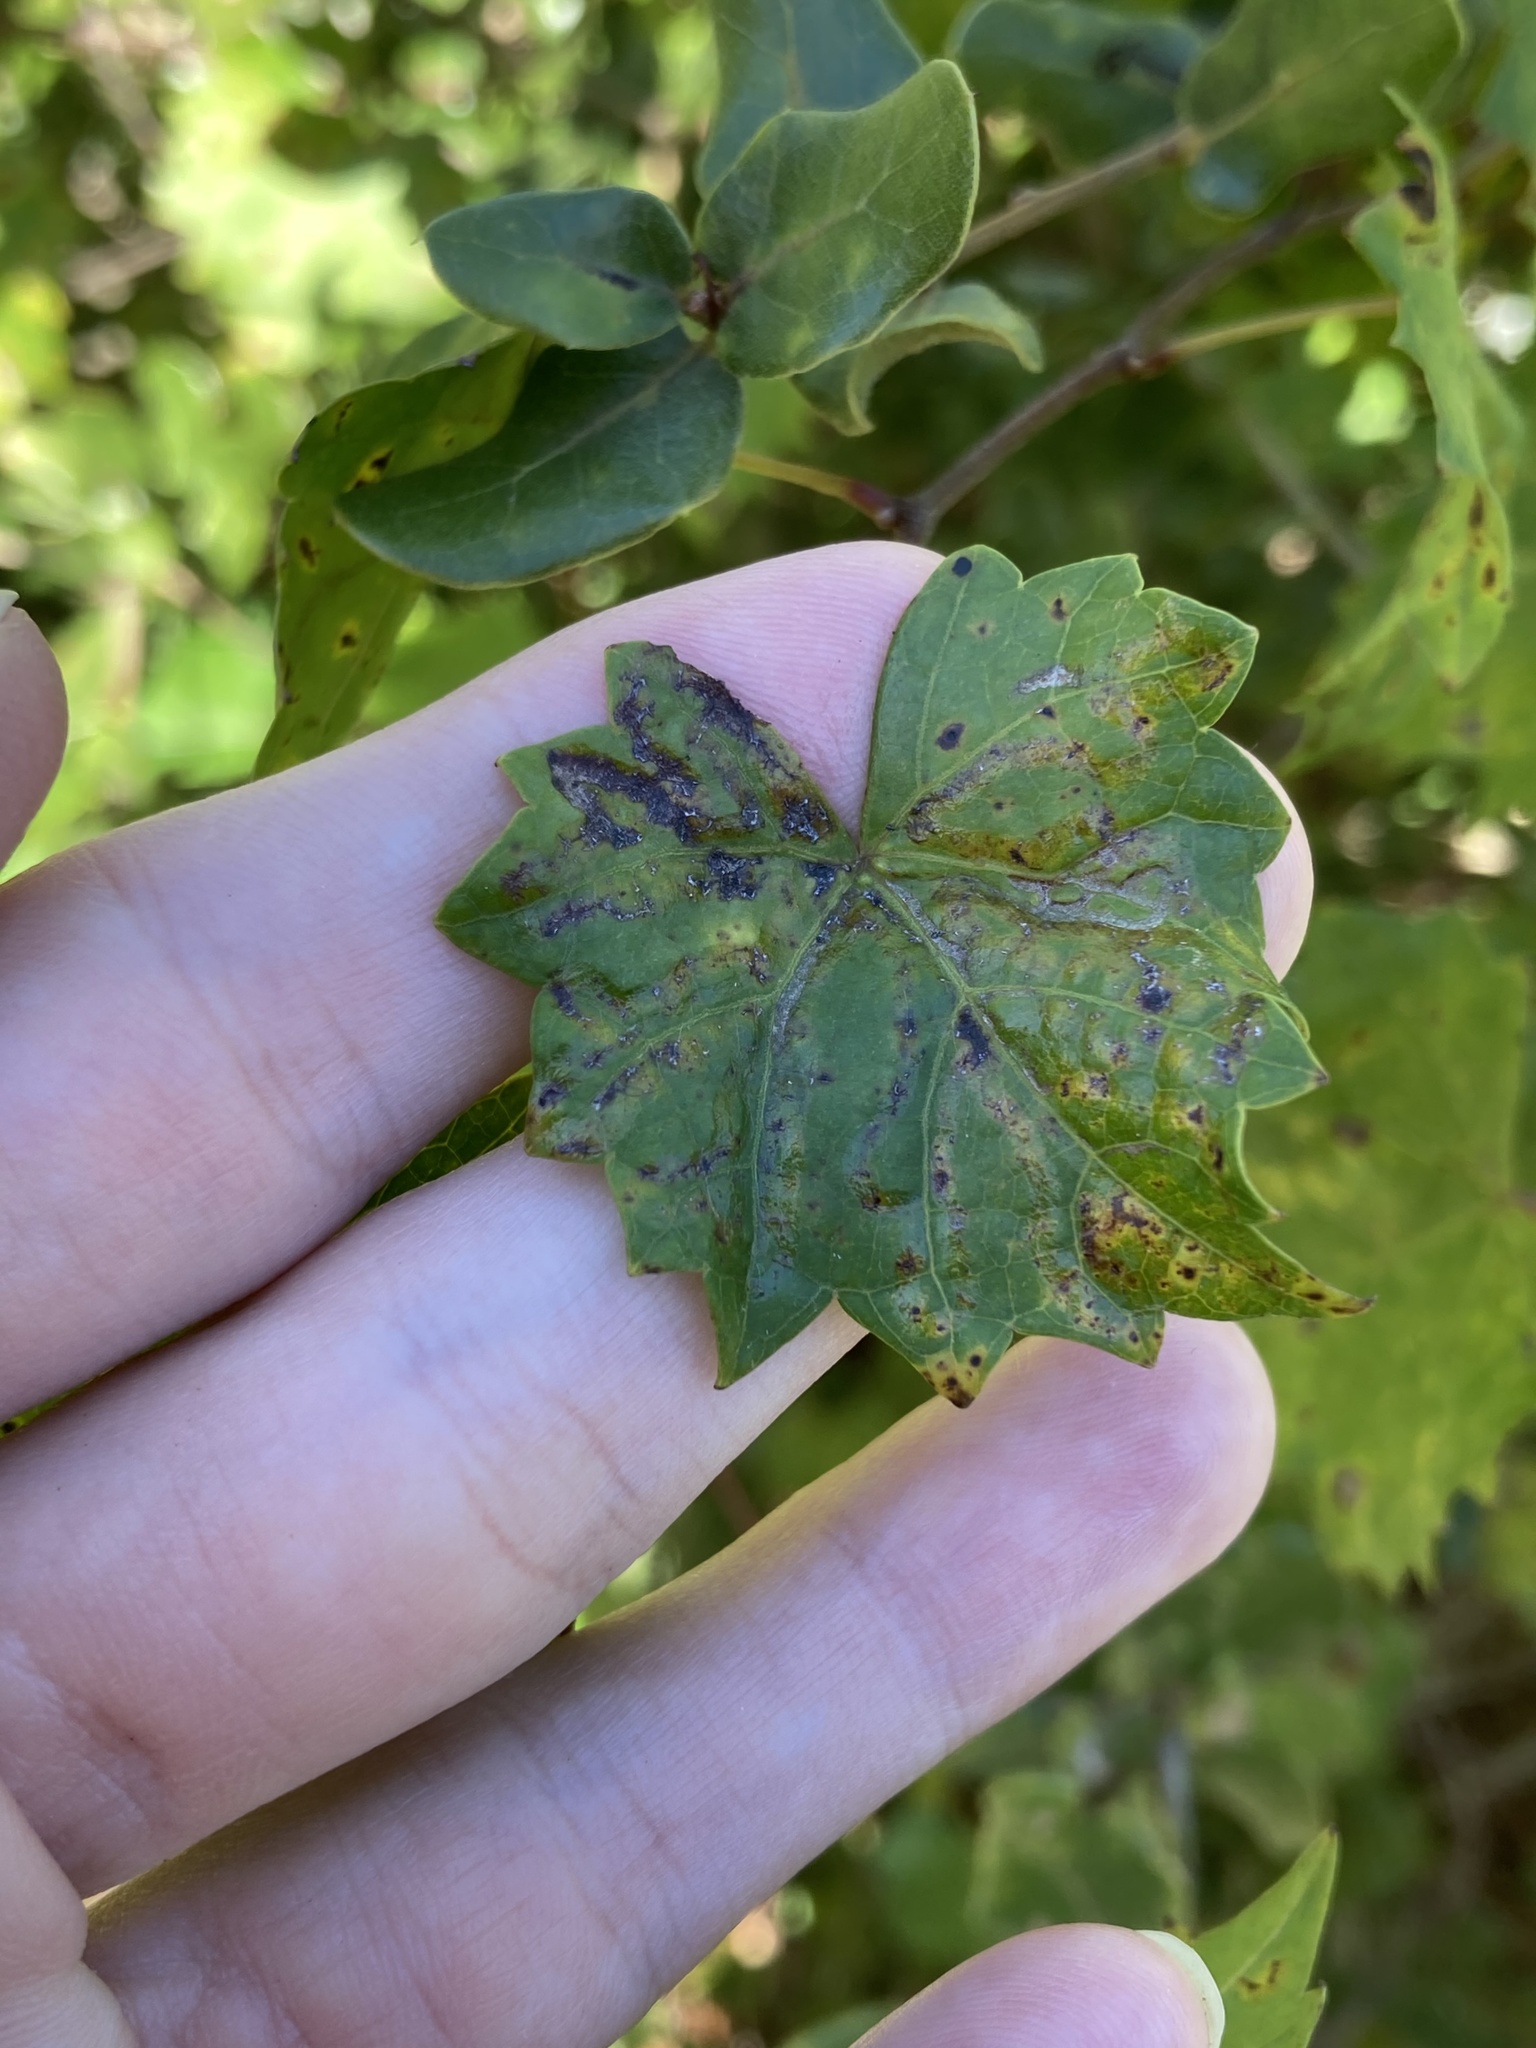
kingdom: Animalia
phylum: Arthropoda
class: Insecta
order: Lepidoptera
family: Gracillariidae
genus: Phyllocnistis
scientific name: Phyllocnistis vitegenella
